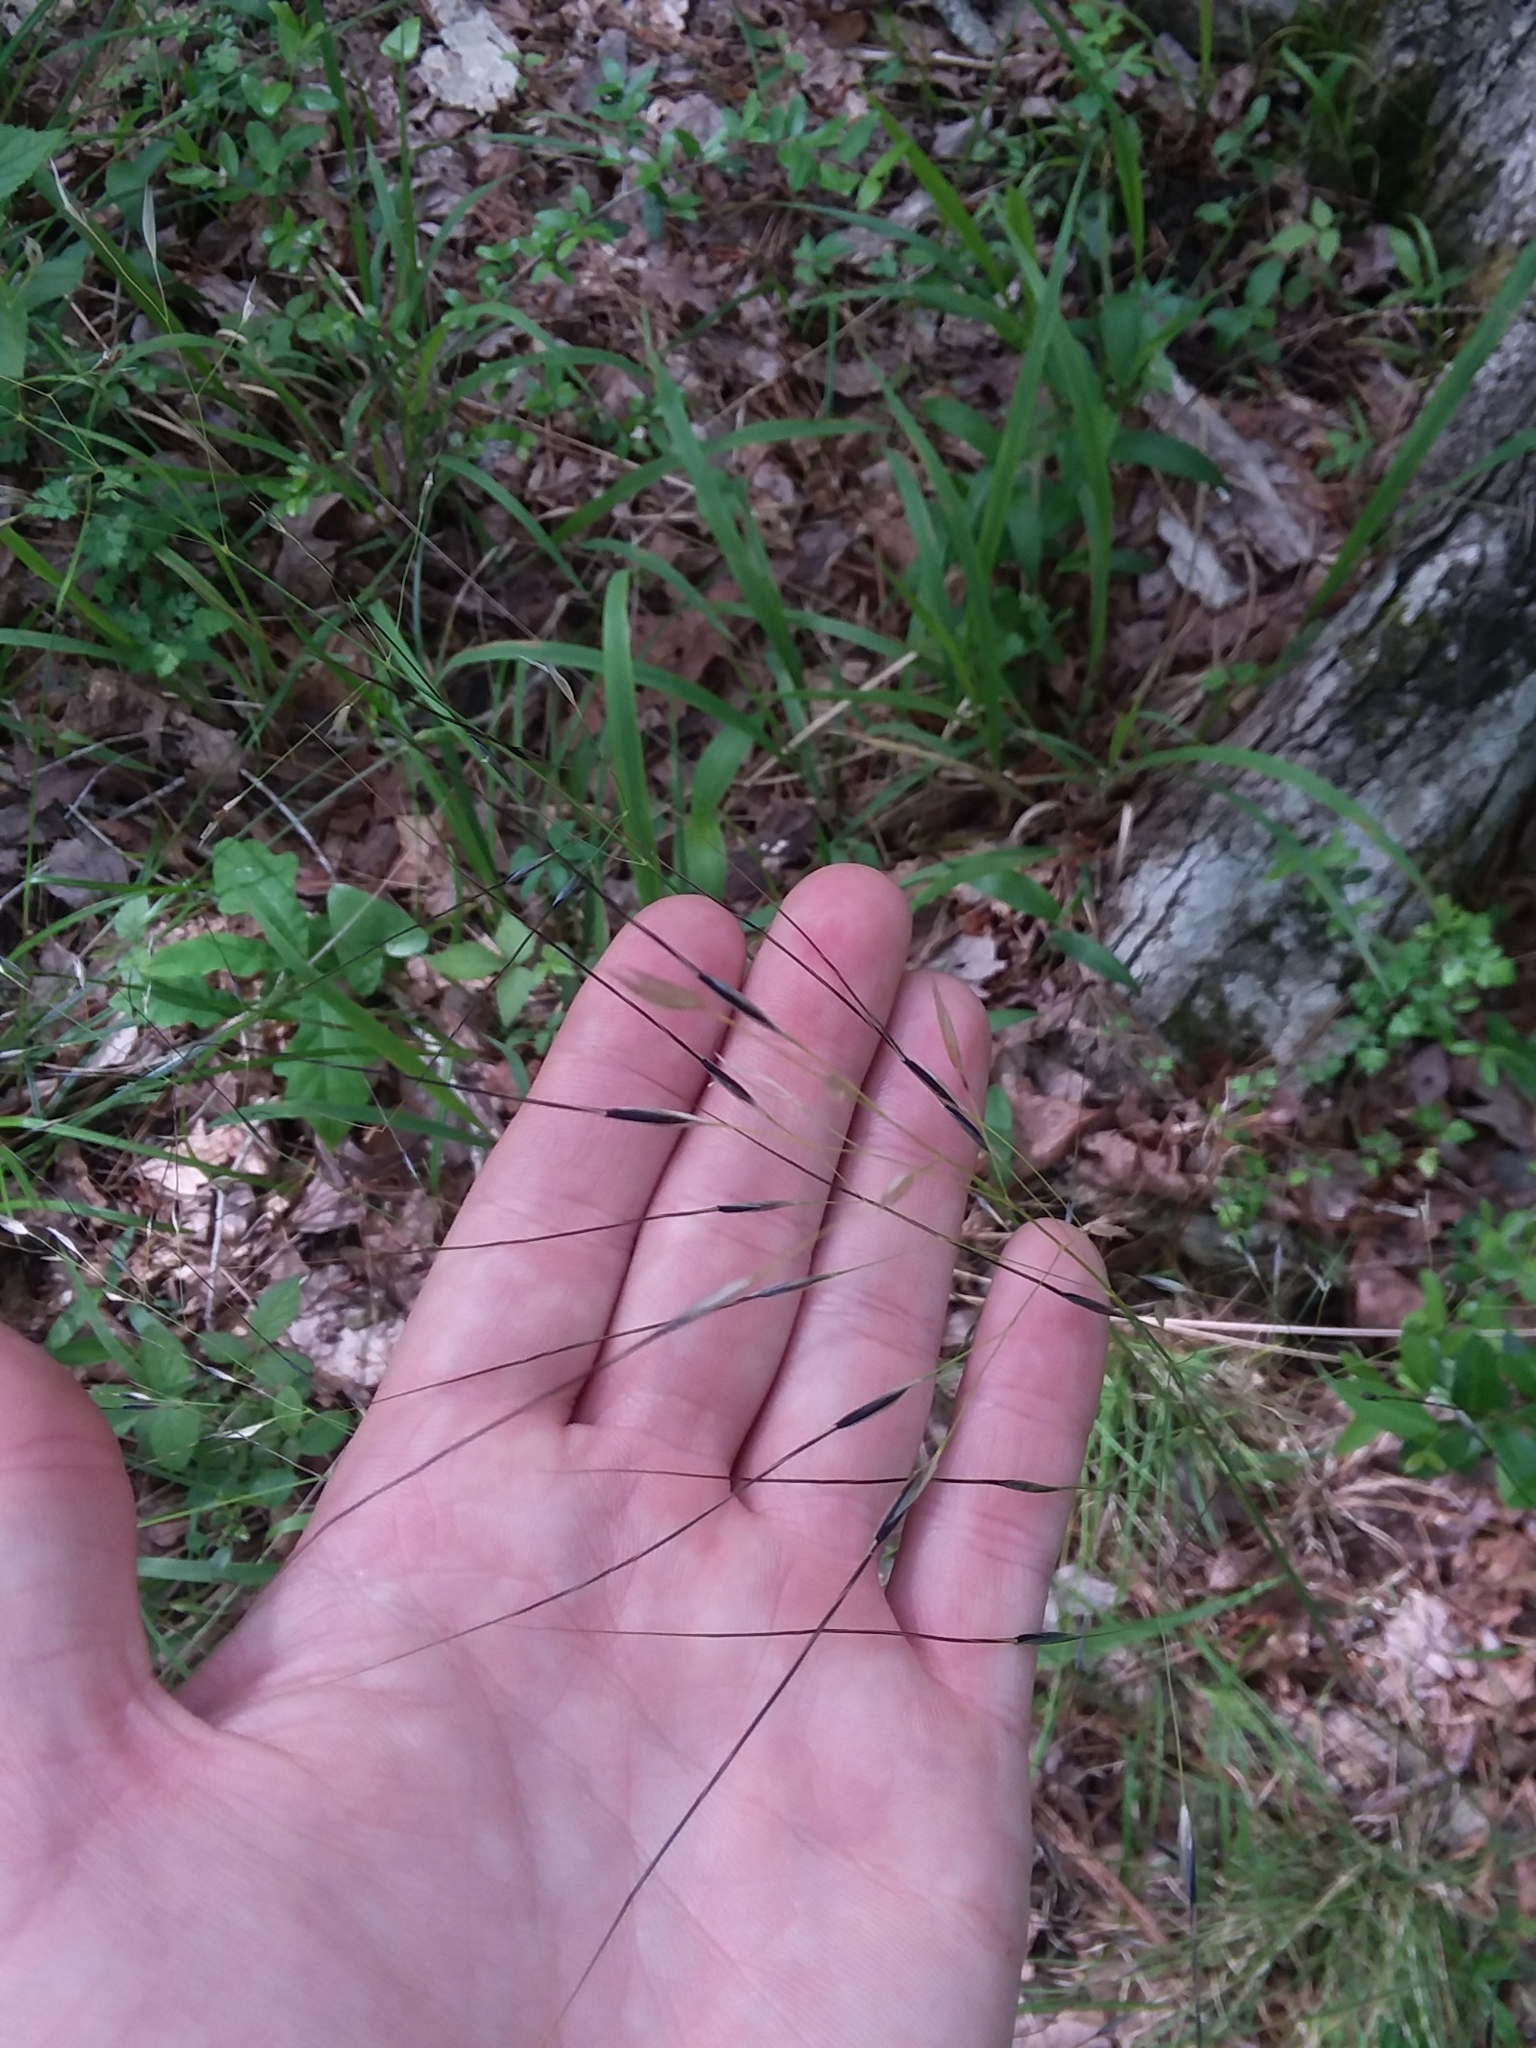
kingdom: Plantae
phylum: Tracheophyta
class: Liliopsida
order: Poales
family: Poaceae
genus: Piptochaetium
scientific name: Piptochaetium avenaceum
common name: Black bunchgrass
